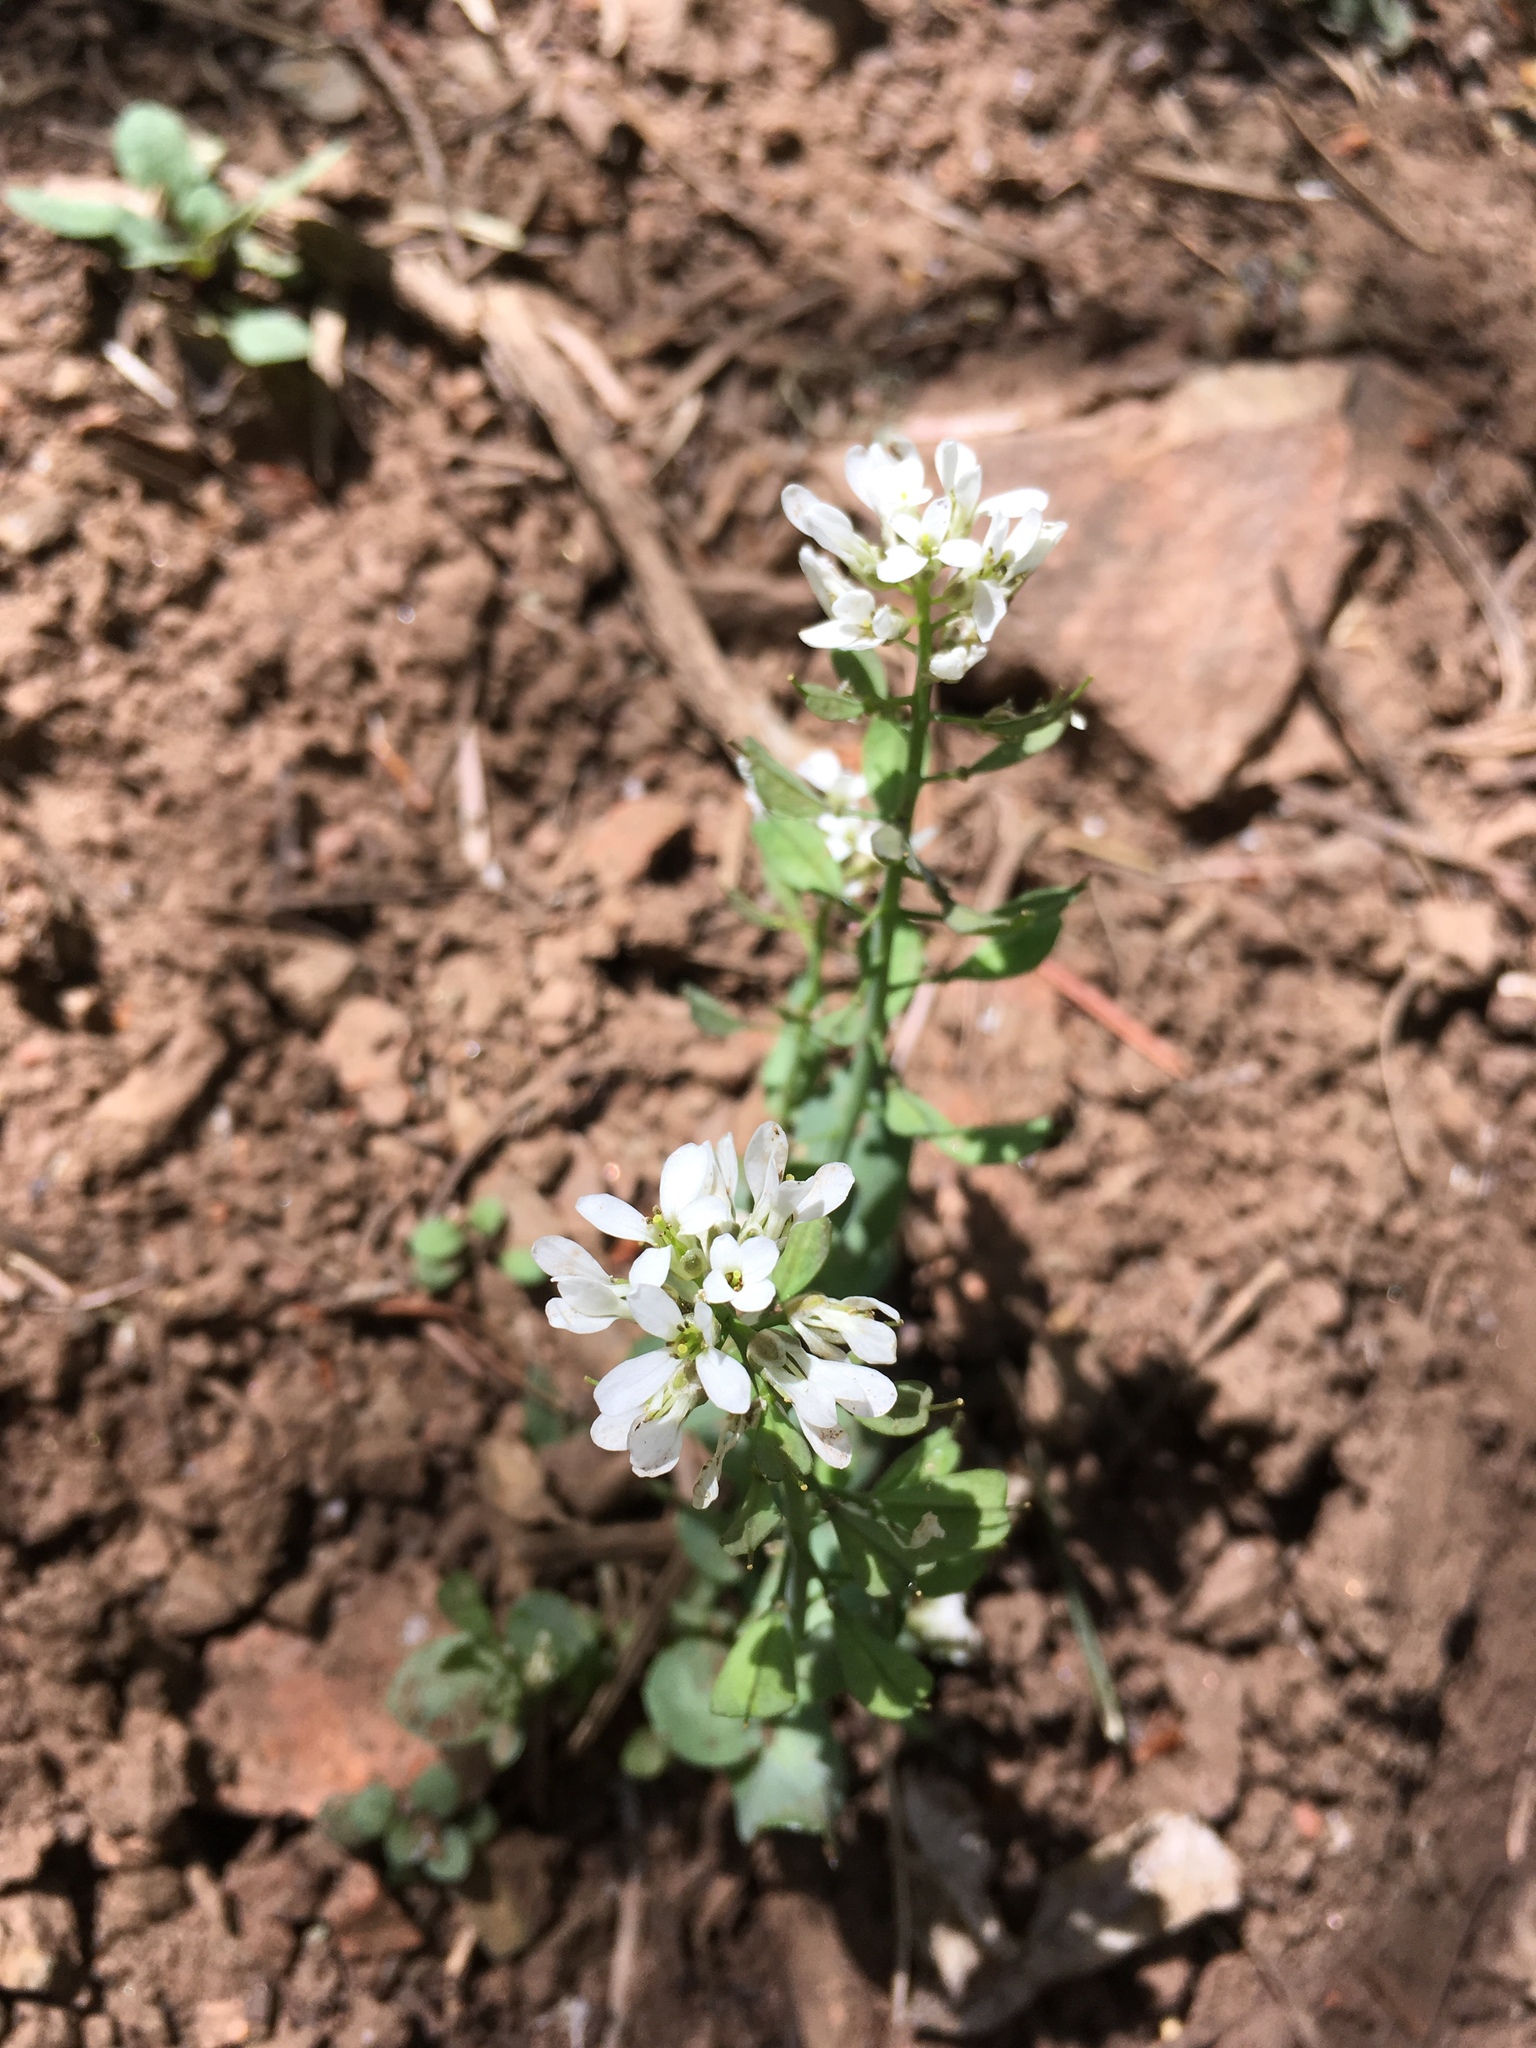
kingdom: Plantae
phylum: Tracheophyta
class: Magnoliopsida
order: Brassicales
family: Brassicaceae
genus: Noccaea
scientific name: Noccaea fendleri
